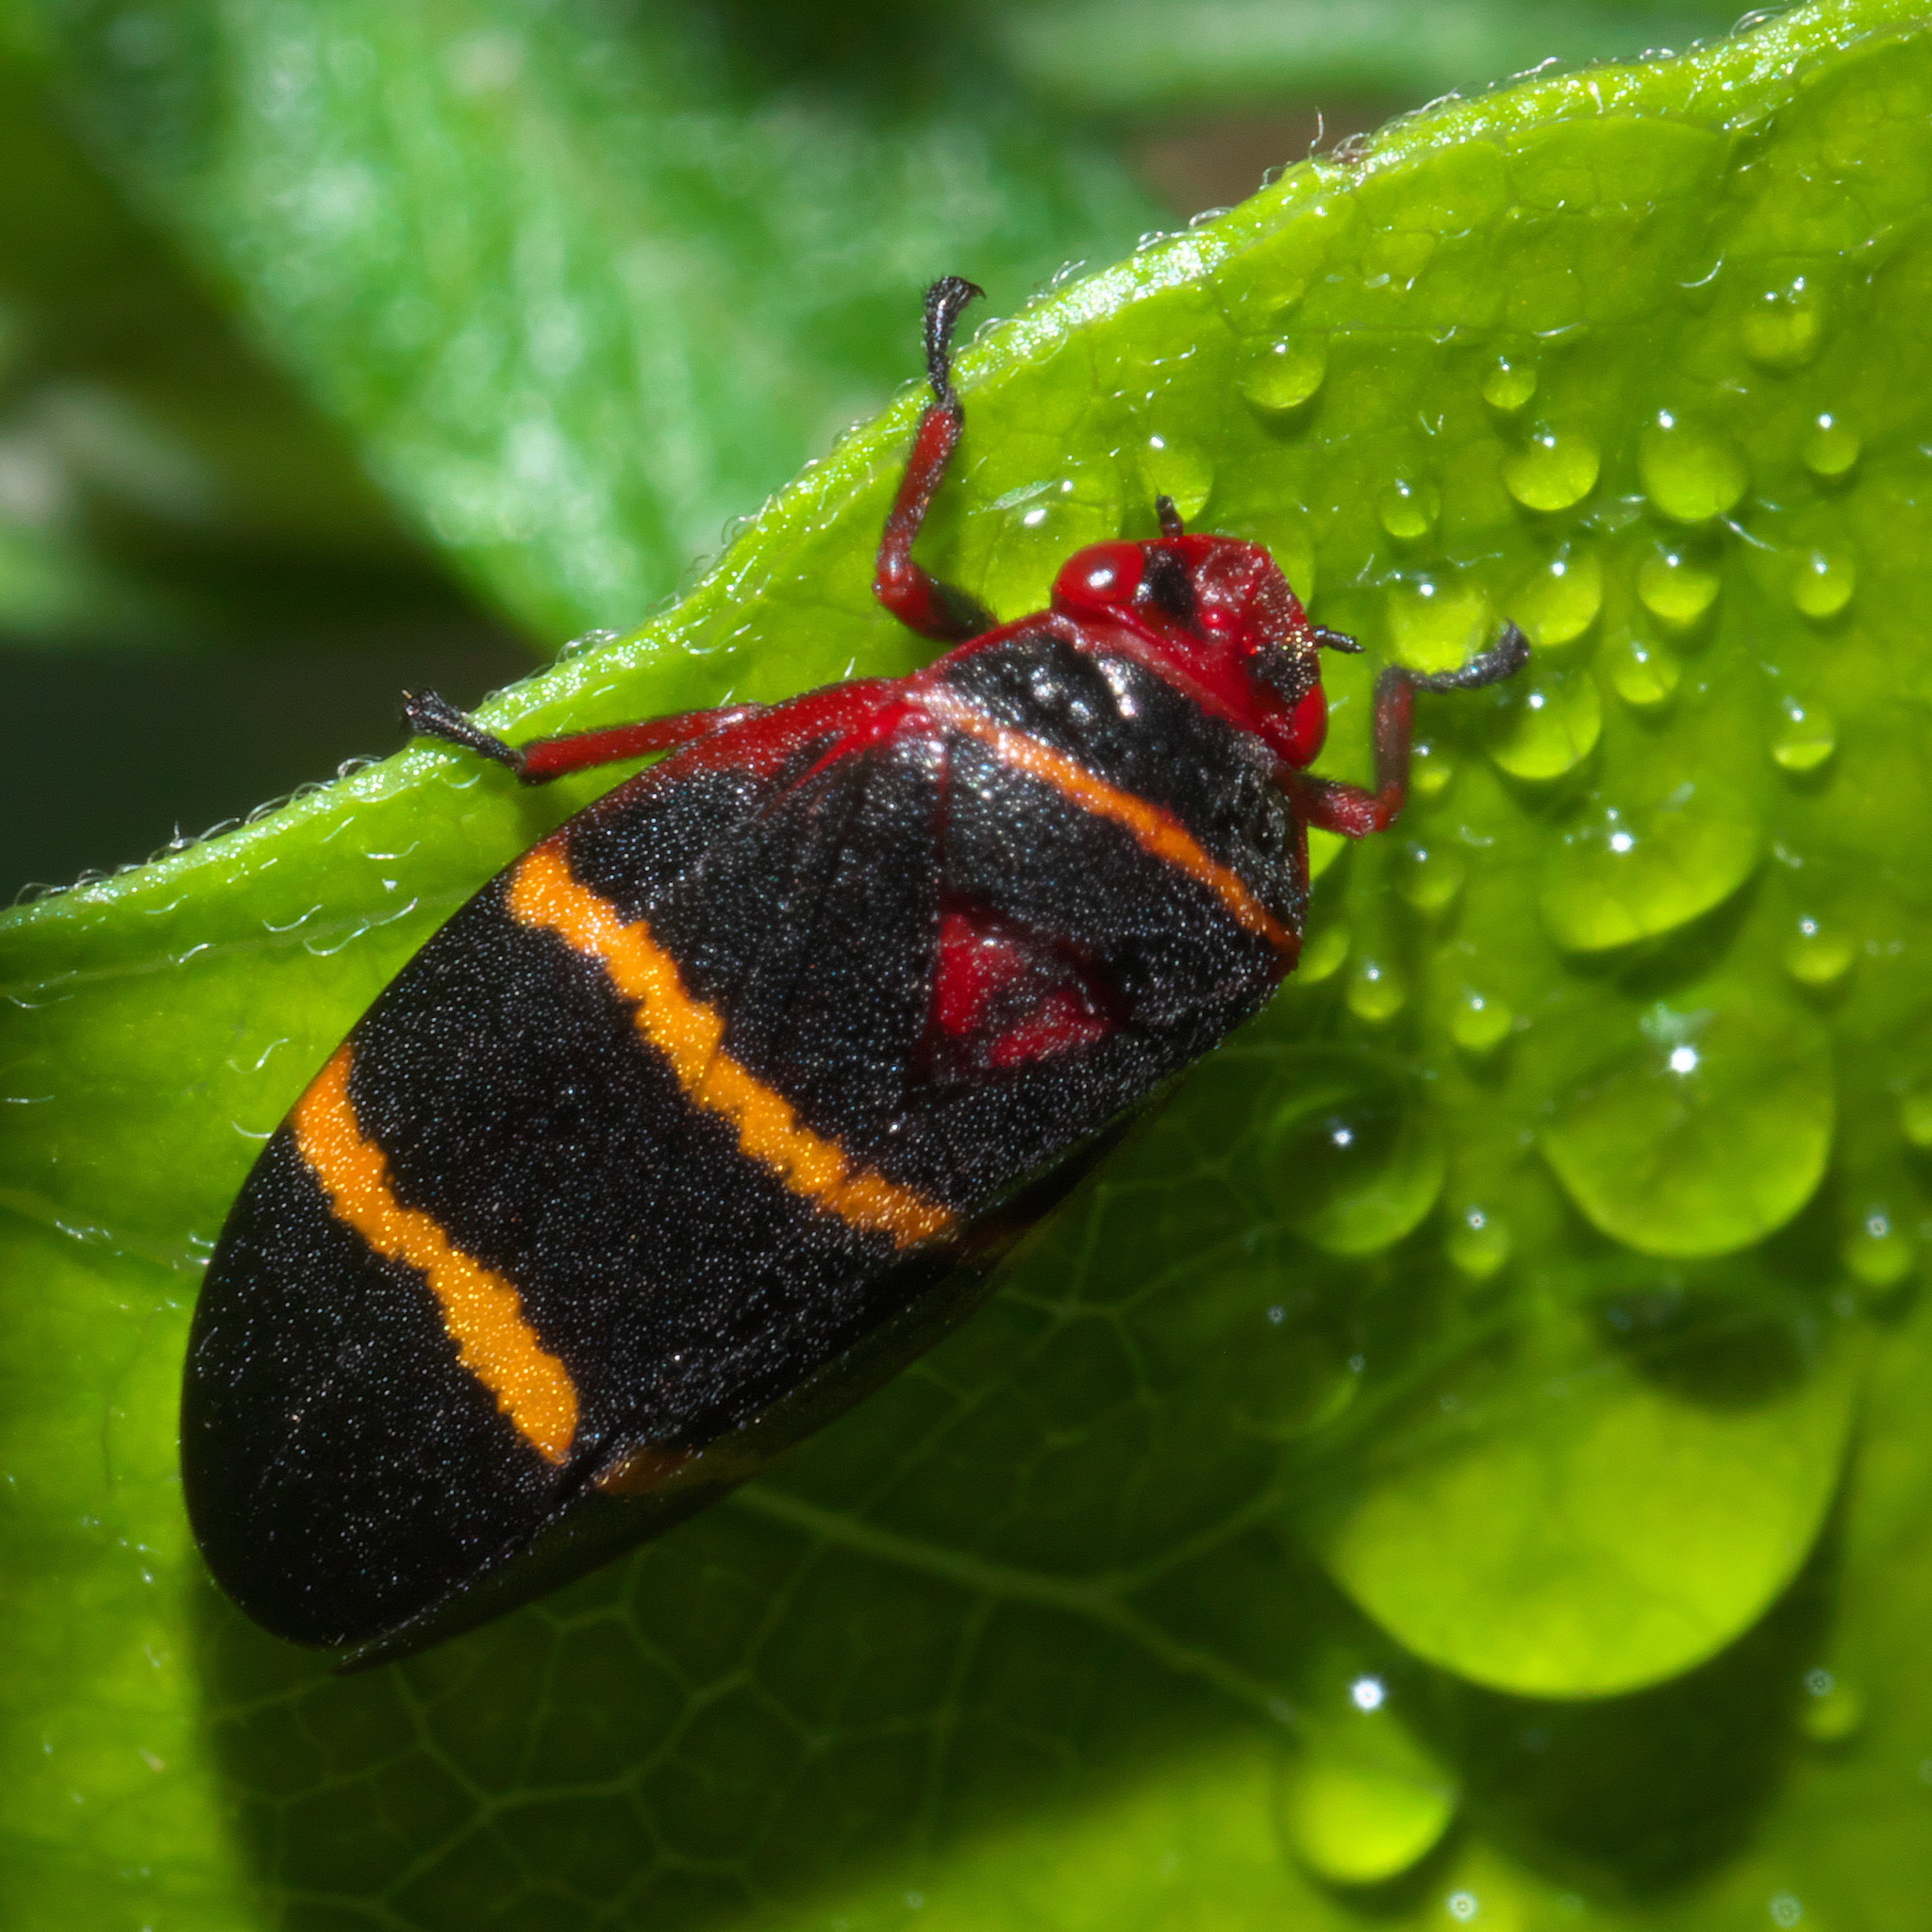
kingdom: Animalia
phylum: Arthropoda
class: Insecta
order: Hemiptera
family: Cercopidae
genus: Prosapia
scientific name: Prosapia bicincta
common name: Twolined spittlebug
